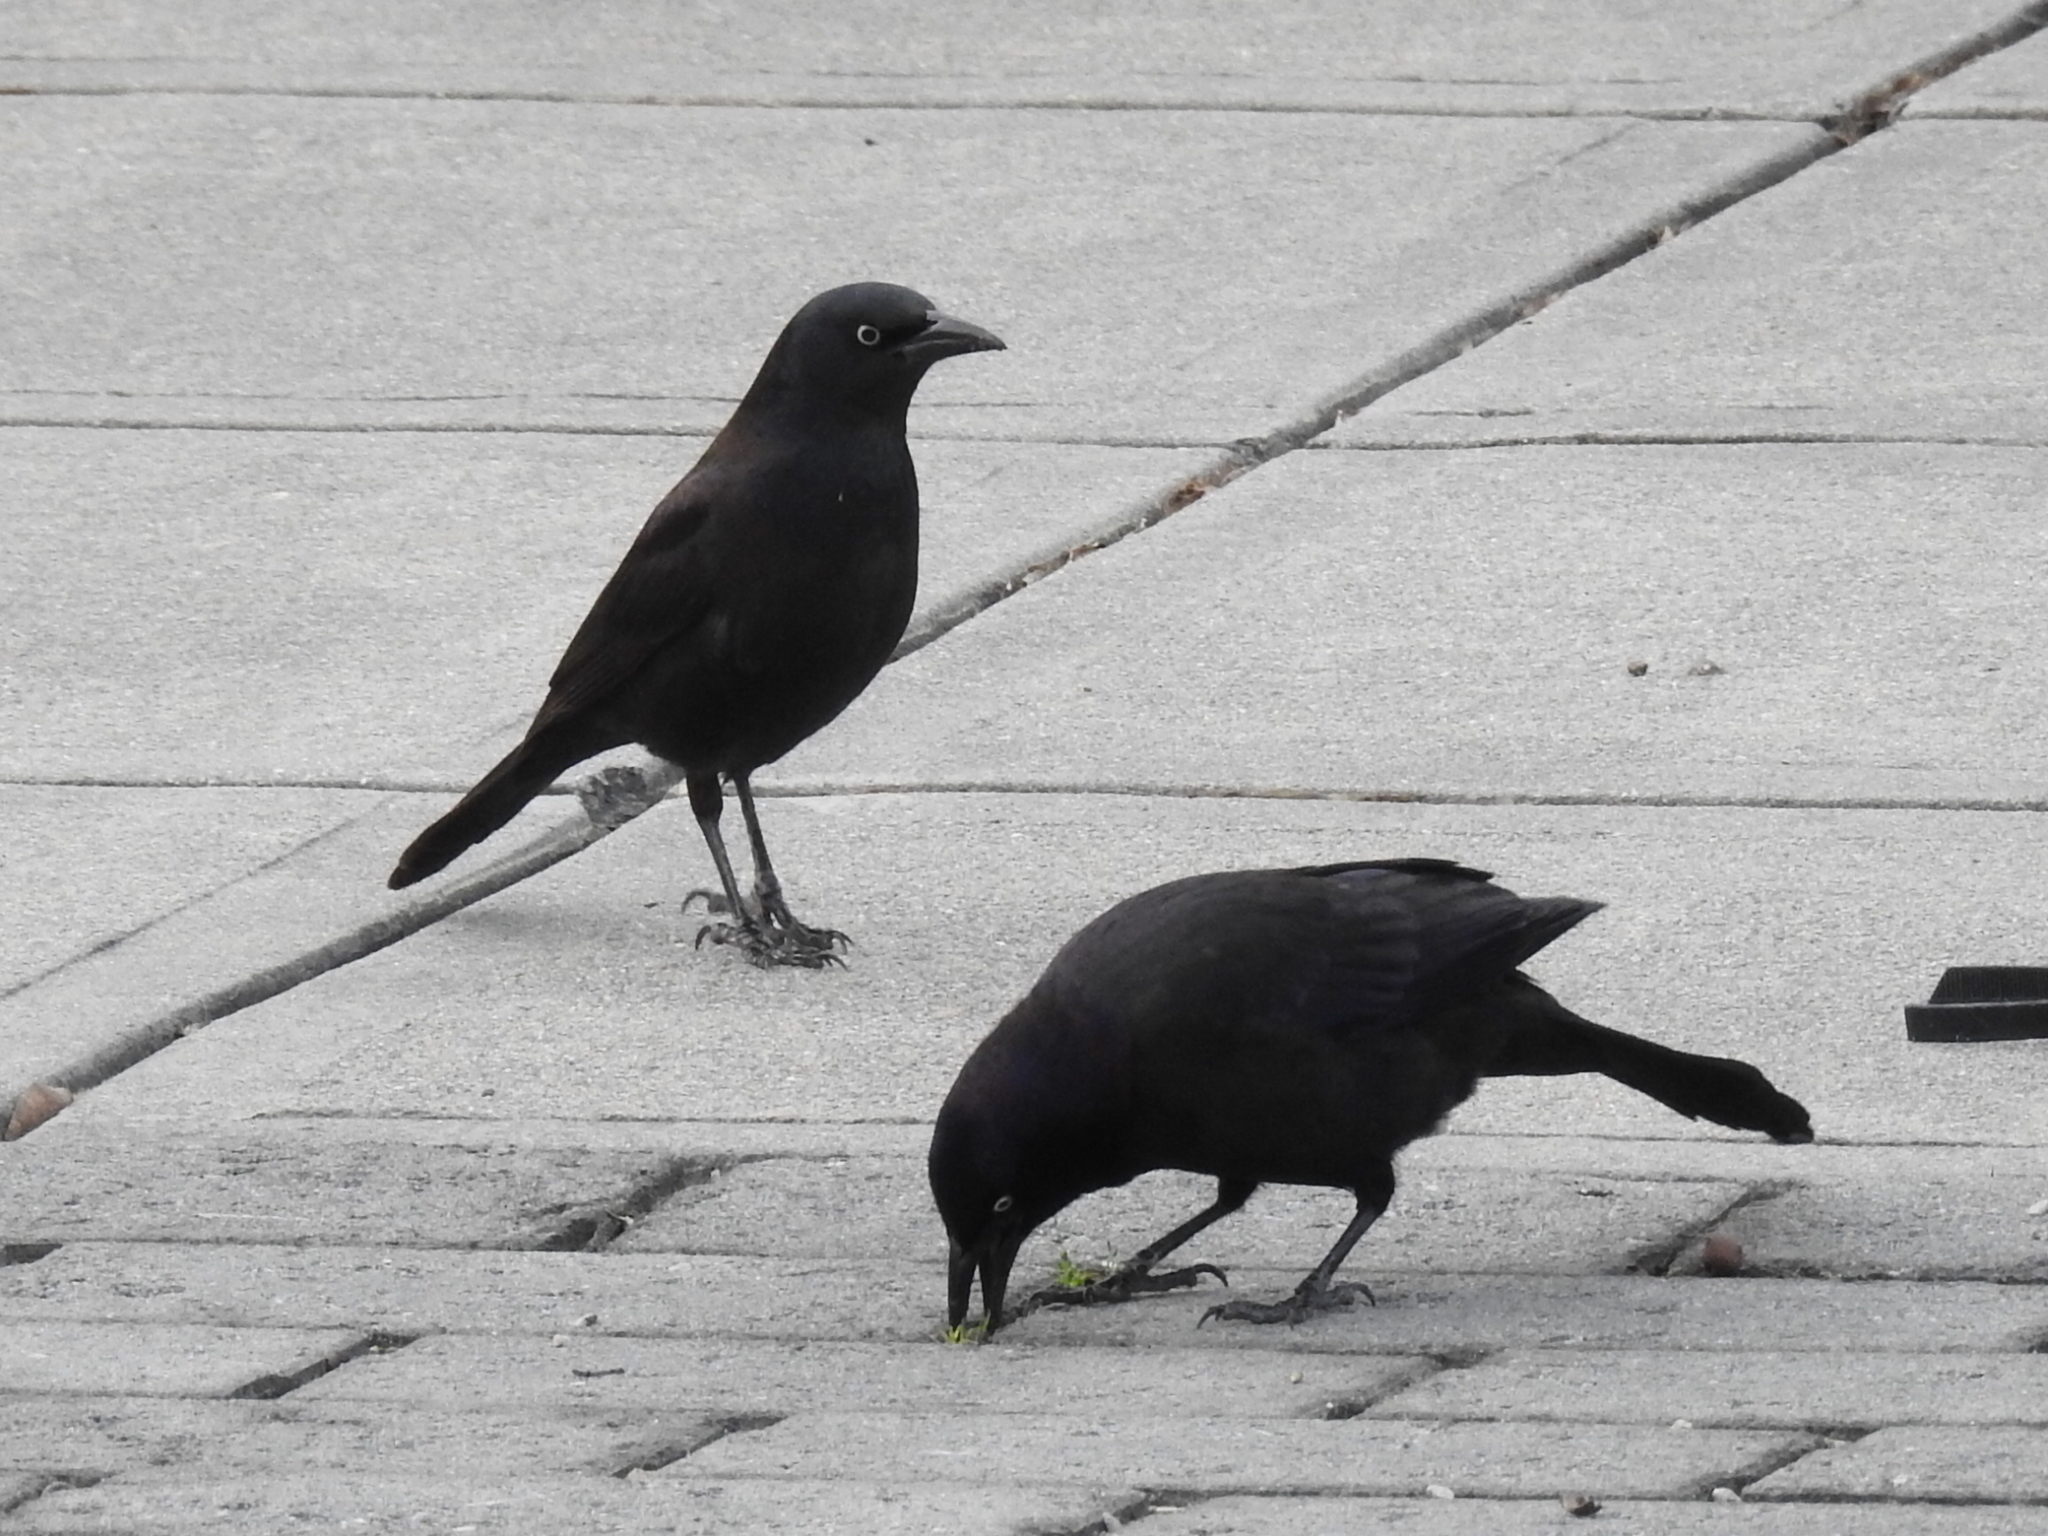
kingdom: Animalia
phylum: Chordata
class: Aves
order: Passeriformes
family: Icteridae
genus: Quiscalus
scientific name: Quiscalus quiscula
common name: Common grackle
